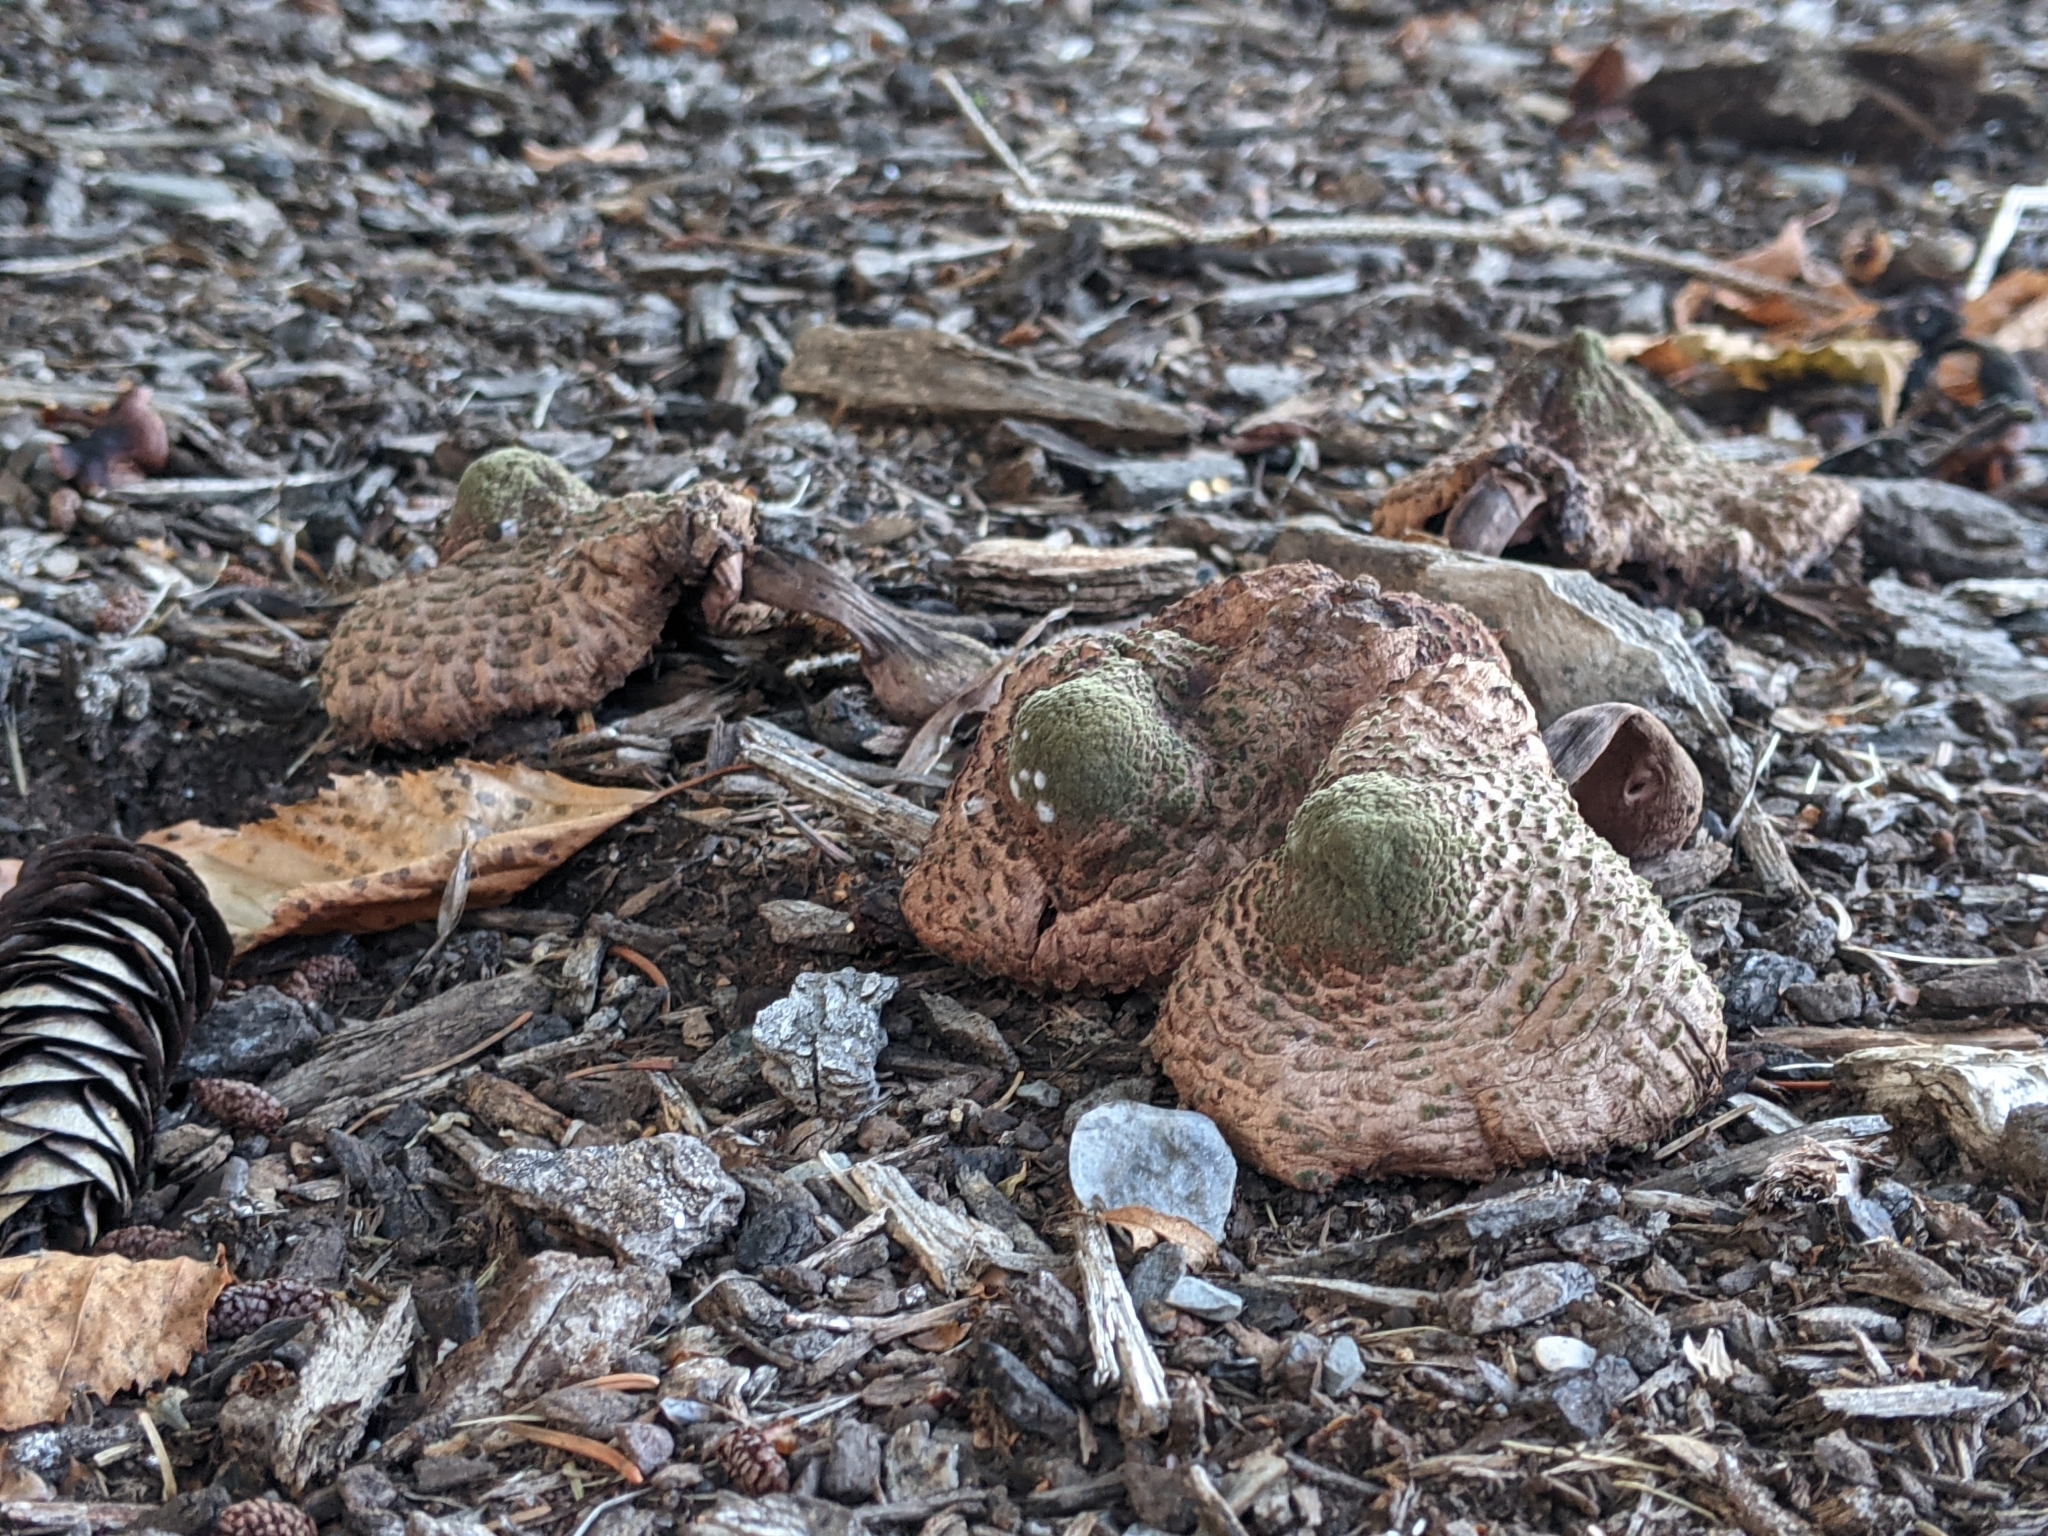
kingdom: Fungi
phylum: Basidiomycota
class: Agaricomycetes
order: Agaricales
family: Agaricaceae
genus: Leucoagaricus
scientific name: Leucoagaricus americanus
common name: Reddening lepiota
